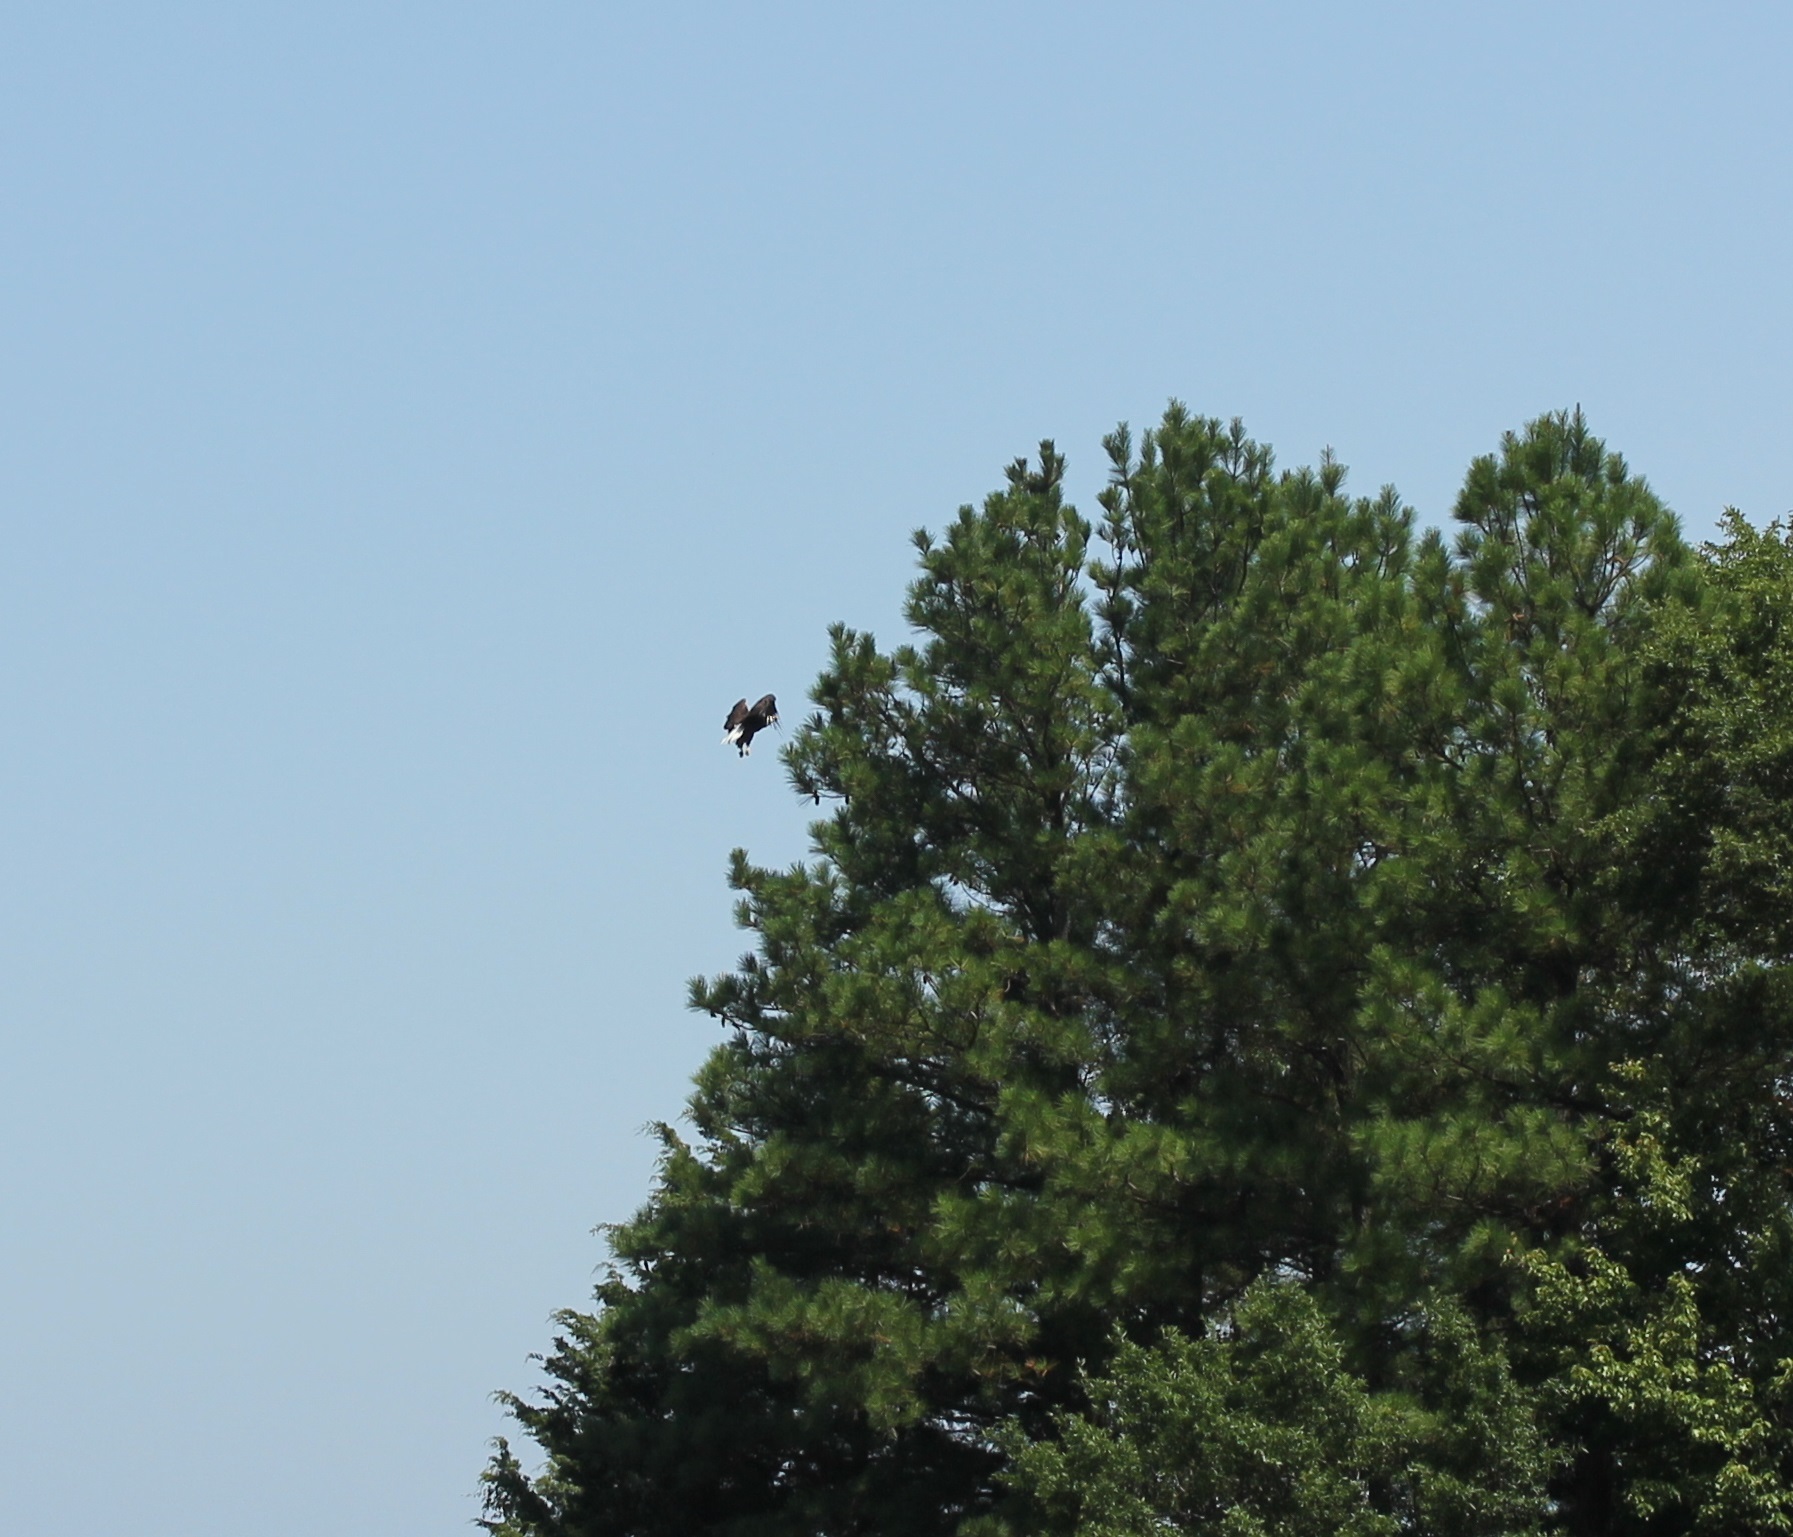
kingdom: Animalia
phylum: Chordata
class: Aves
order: Accipitriformes
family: Accipitridae
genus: Haliaeetus
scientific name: Haliaeetus leucocephalus
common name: Bald eagle
